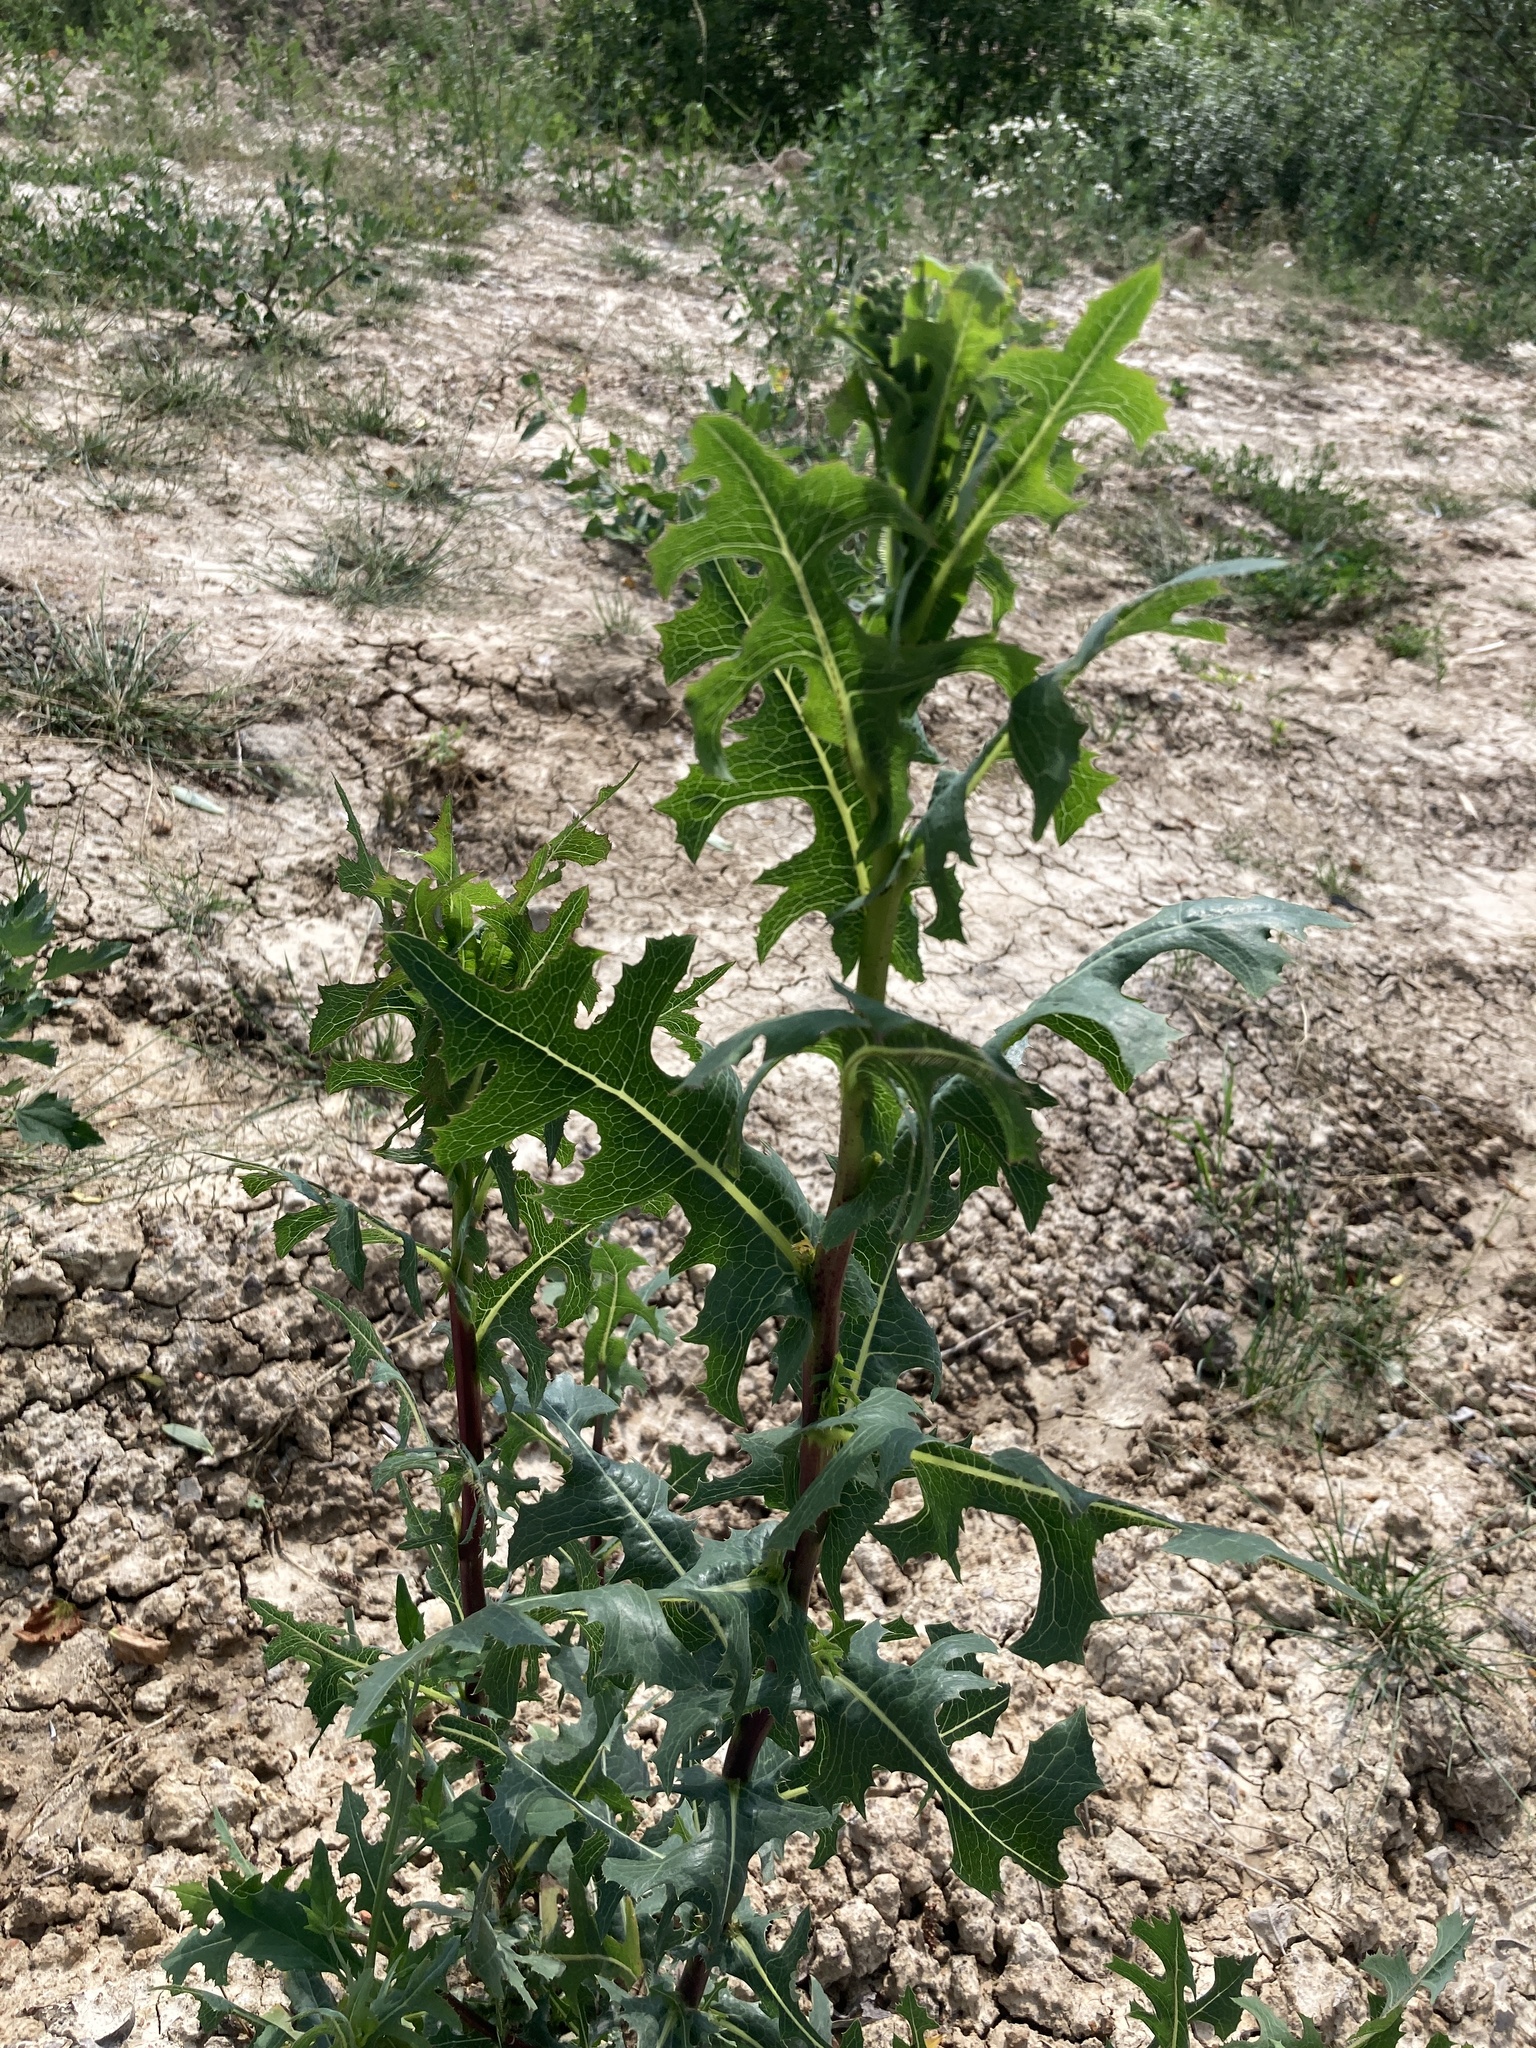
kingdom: Plantae
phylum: Tracheophyta
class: Magnoliopsida
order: Asterales
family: Asteraceae
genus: Lactuca
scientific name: Lactuca serriola
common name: Prickly lettuce
